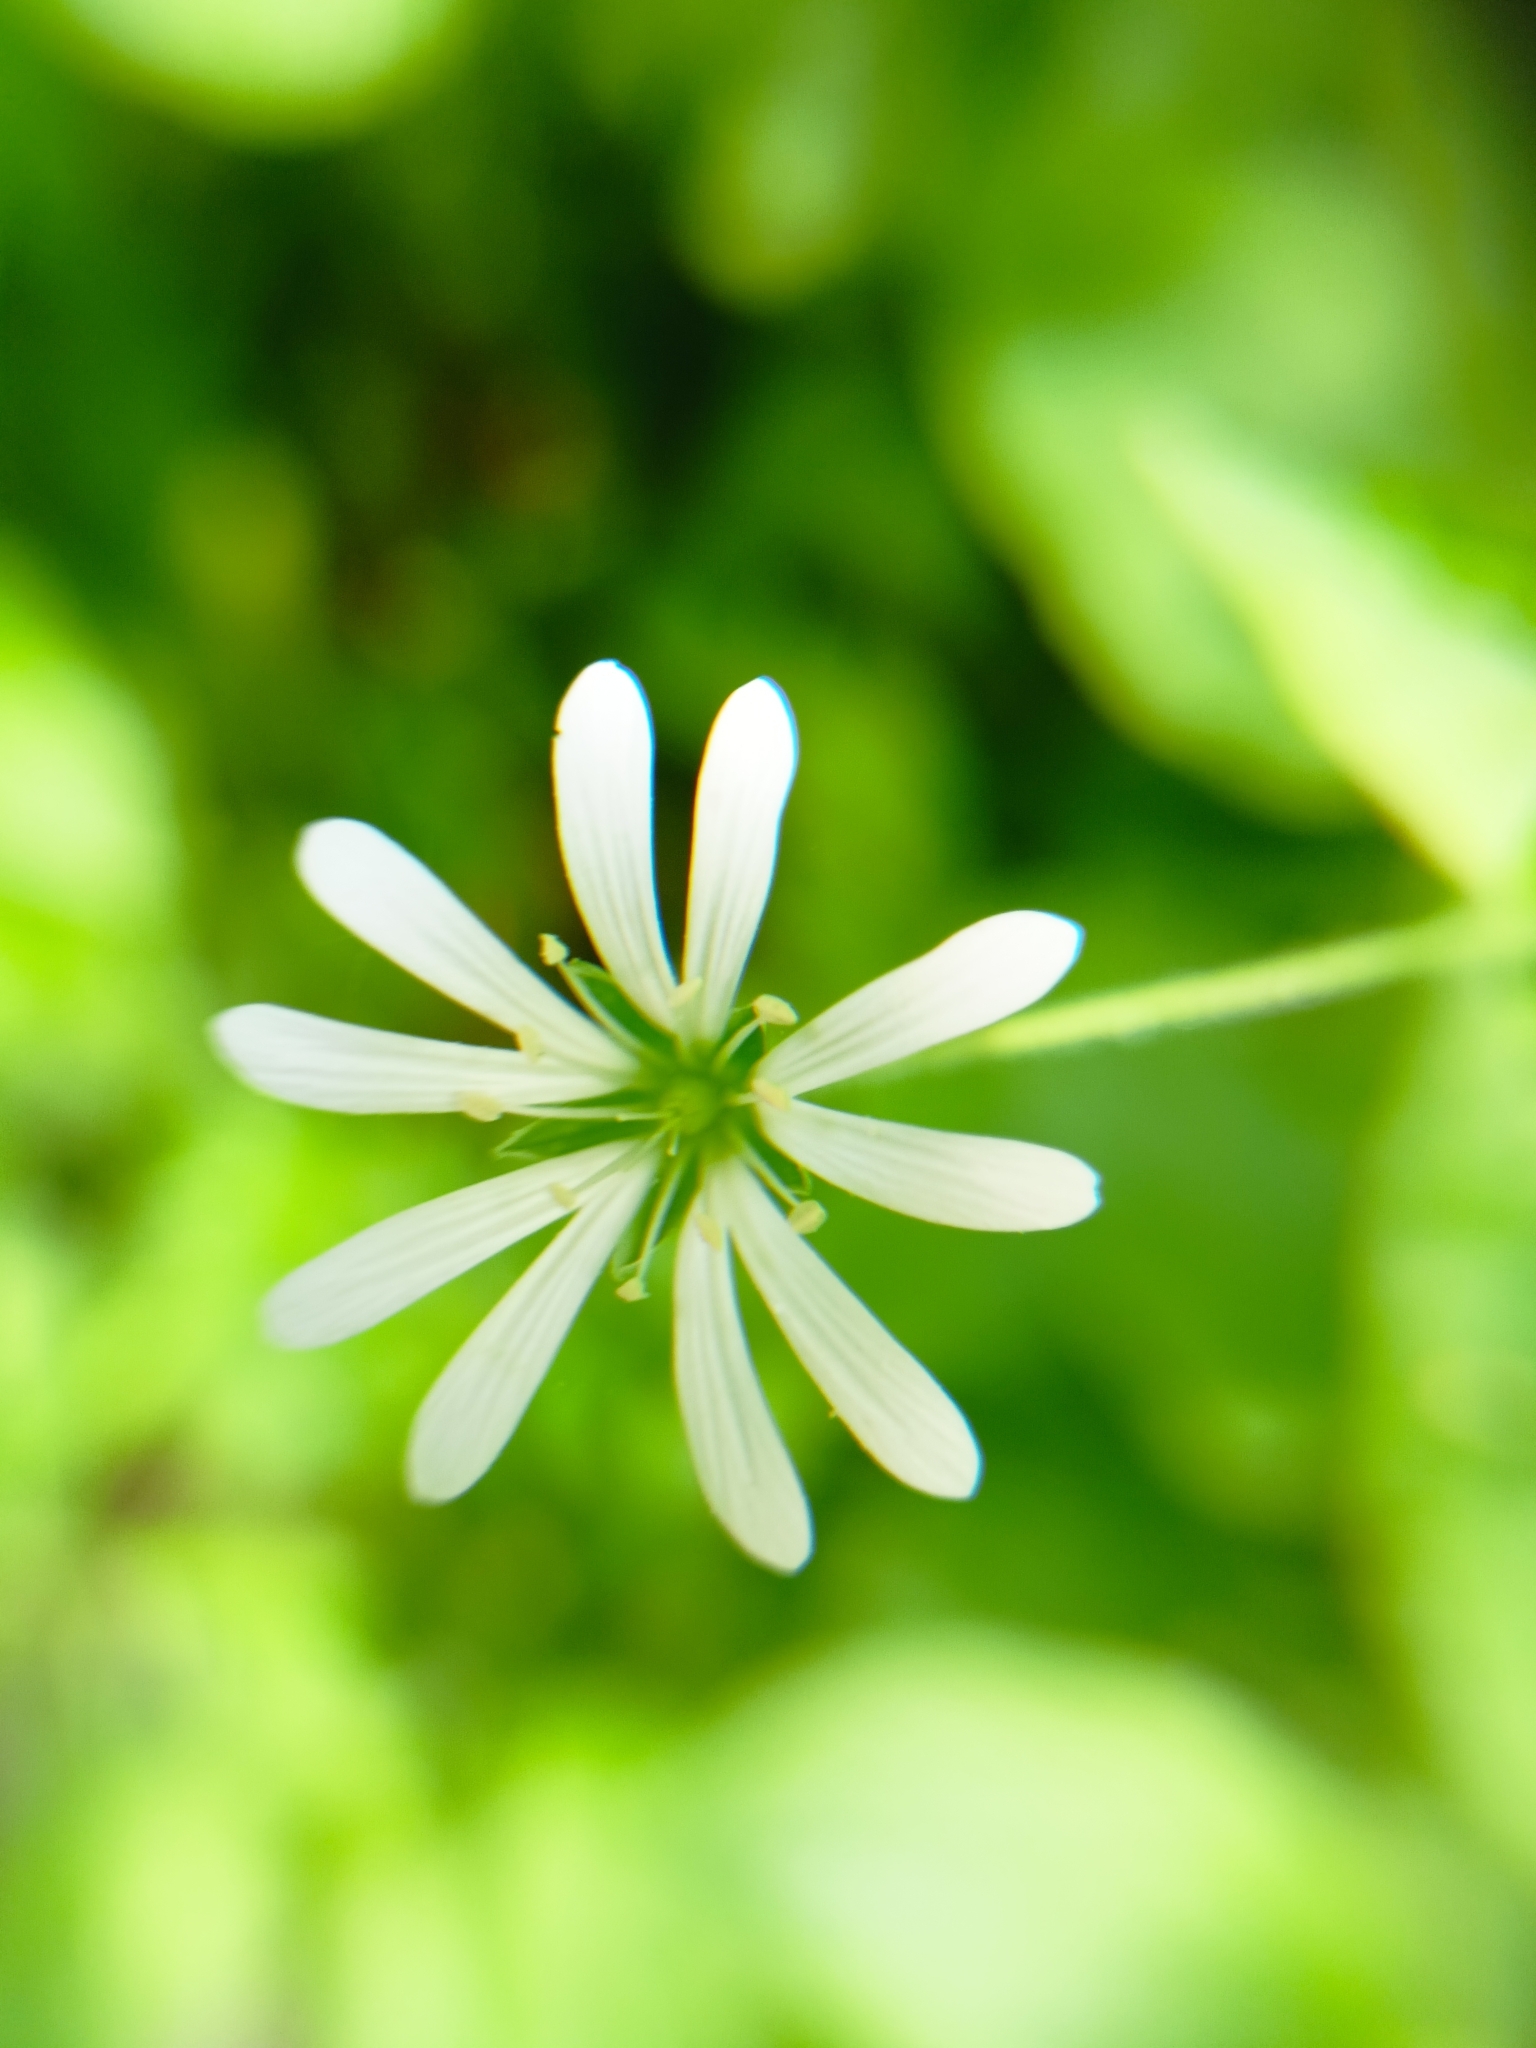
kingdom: Plantae
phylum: Tracheophyta
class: Magnoliopsida
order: Caryophyllales
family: Caryophyllaceae
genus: Stellaria
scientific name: Stellaria nemorum
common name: Wood stitchwort
